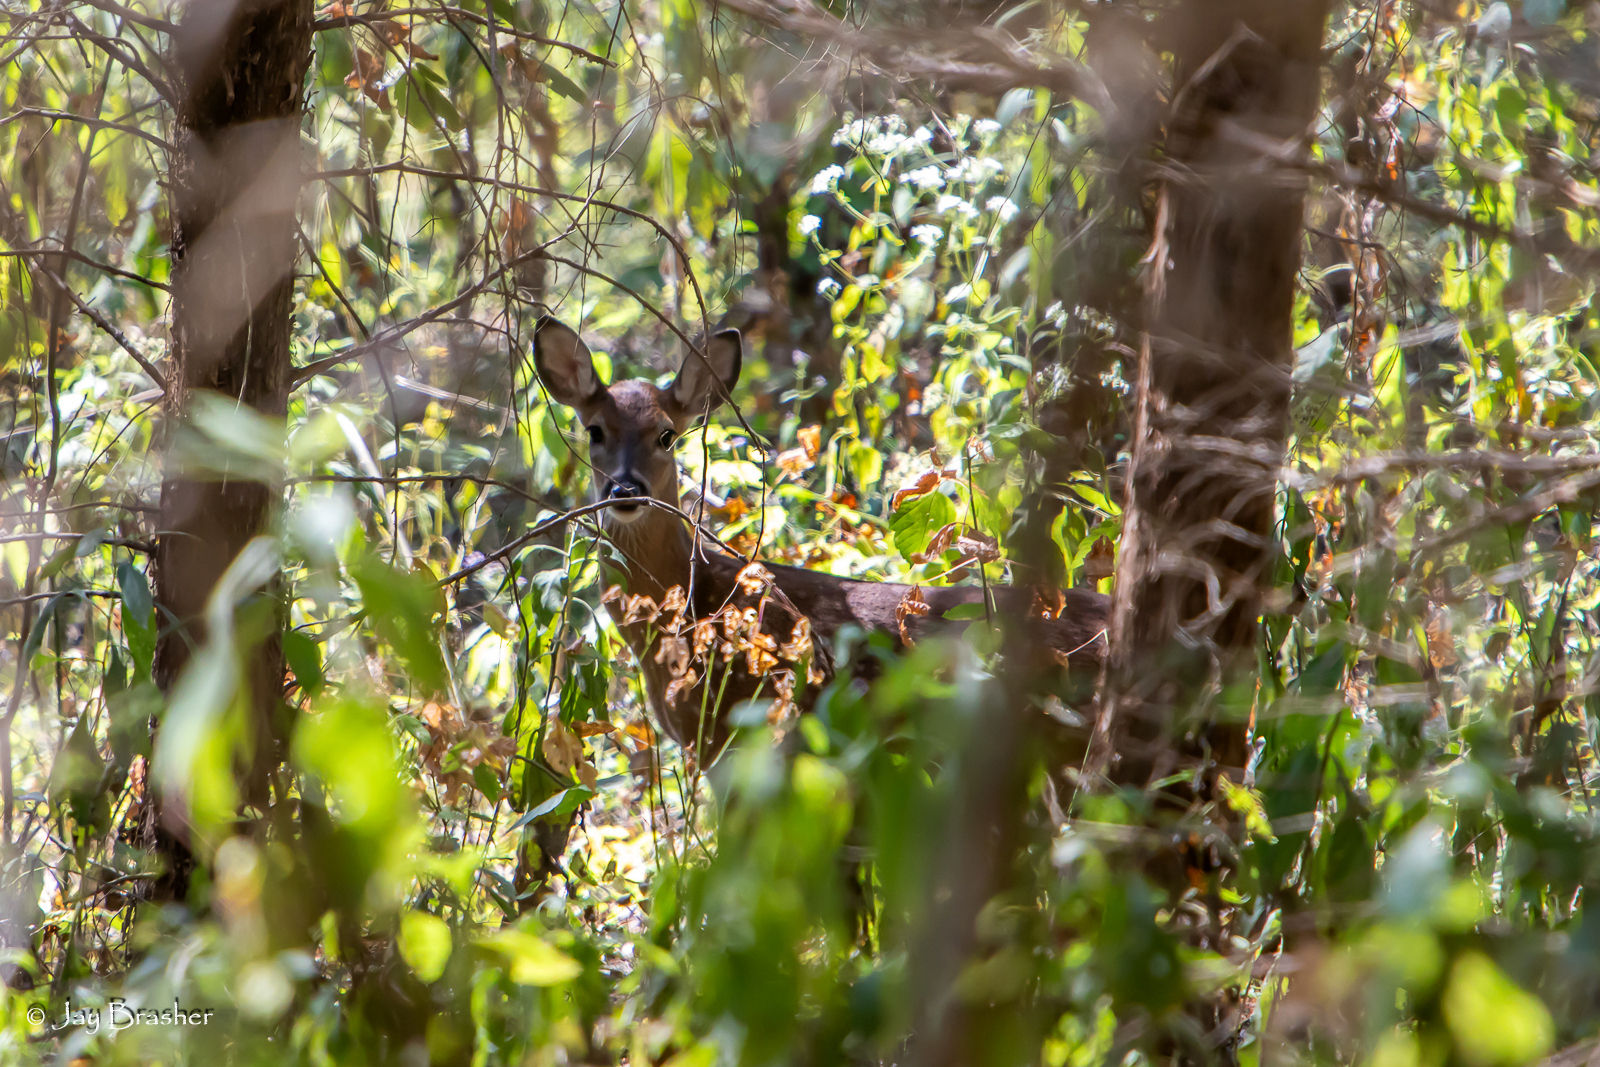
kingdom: Animalia
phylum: Chordata
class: Mammalia
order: Artiodactyla
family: Cervidae
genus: Odocoileus
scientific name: Odocoileus virginianus
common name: White-tailed deer
